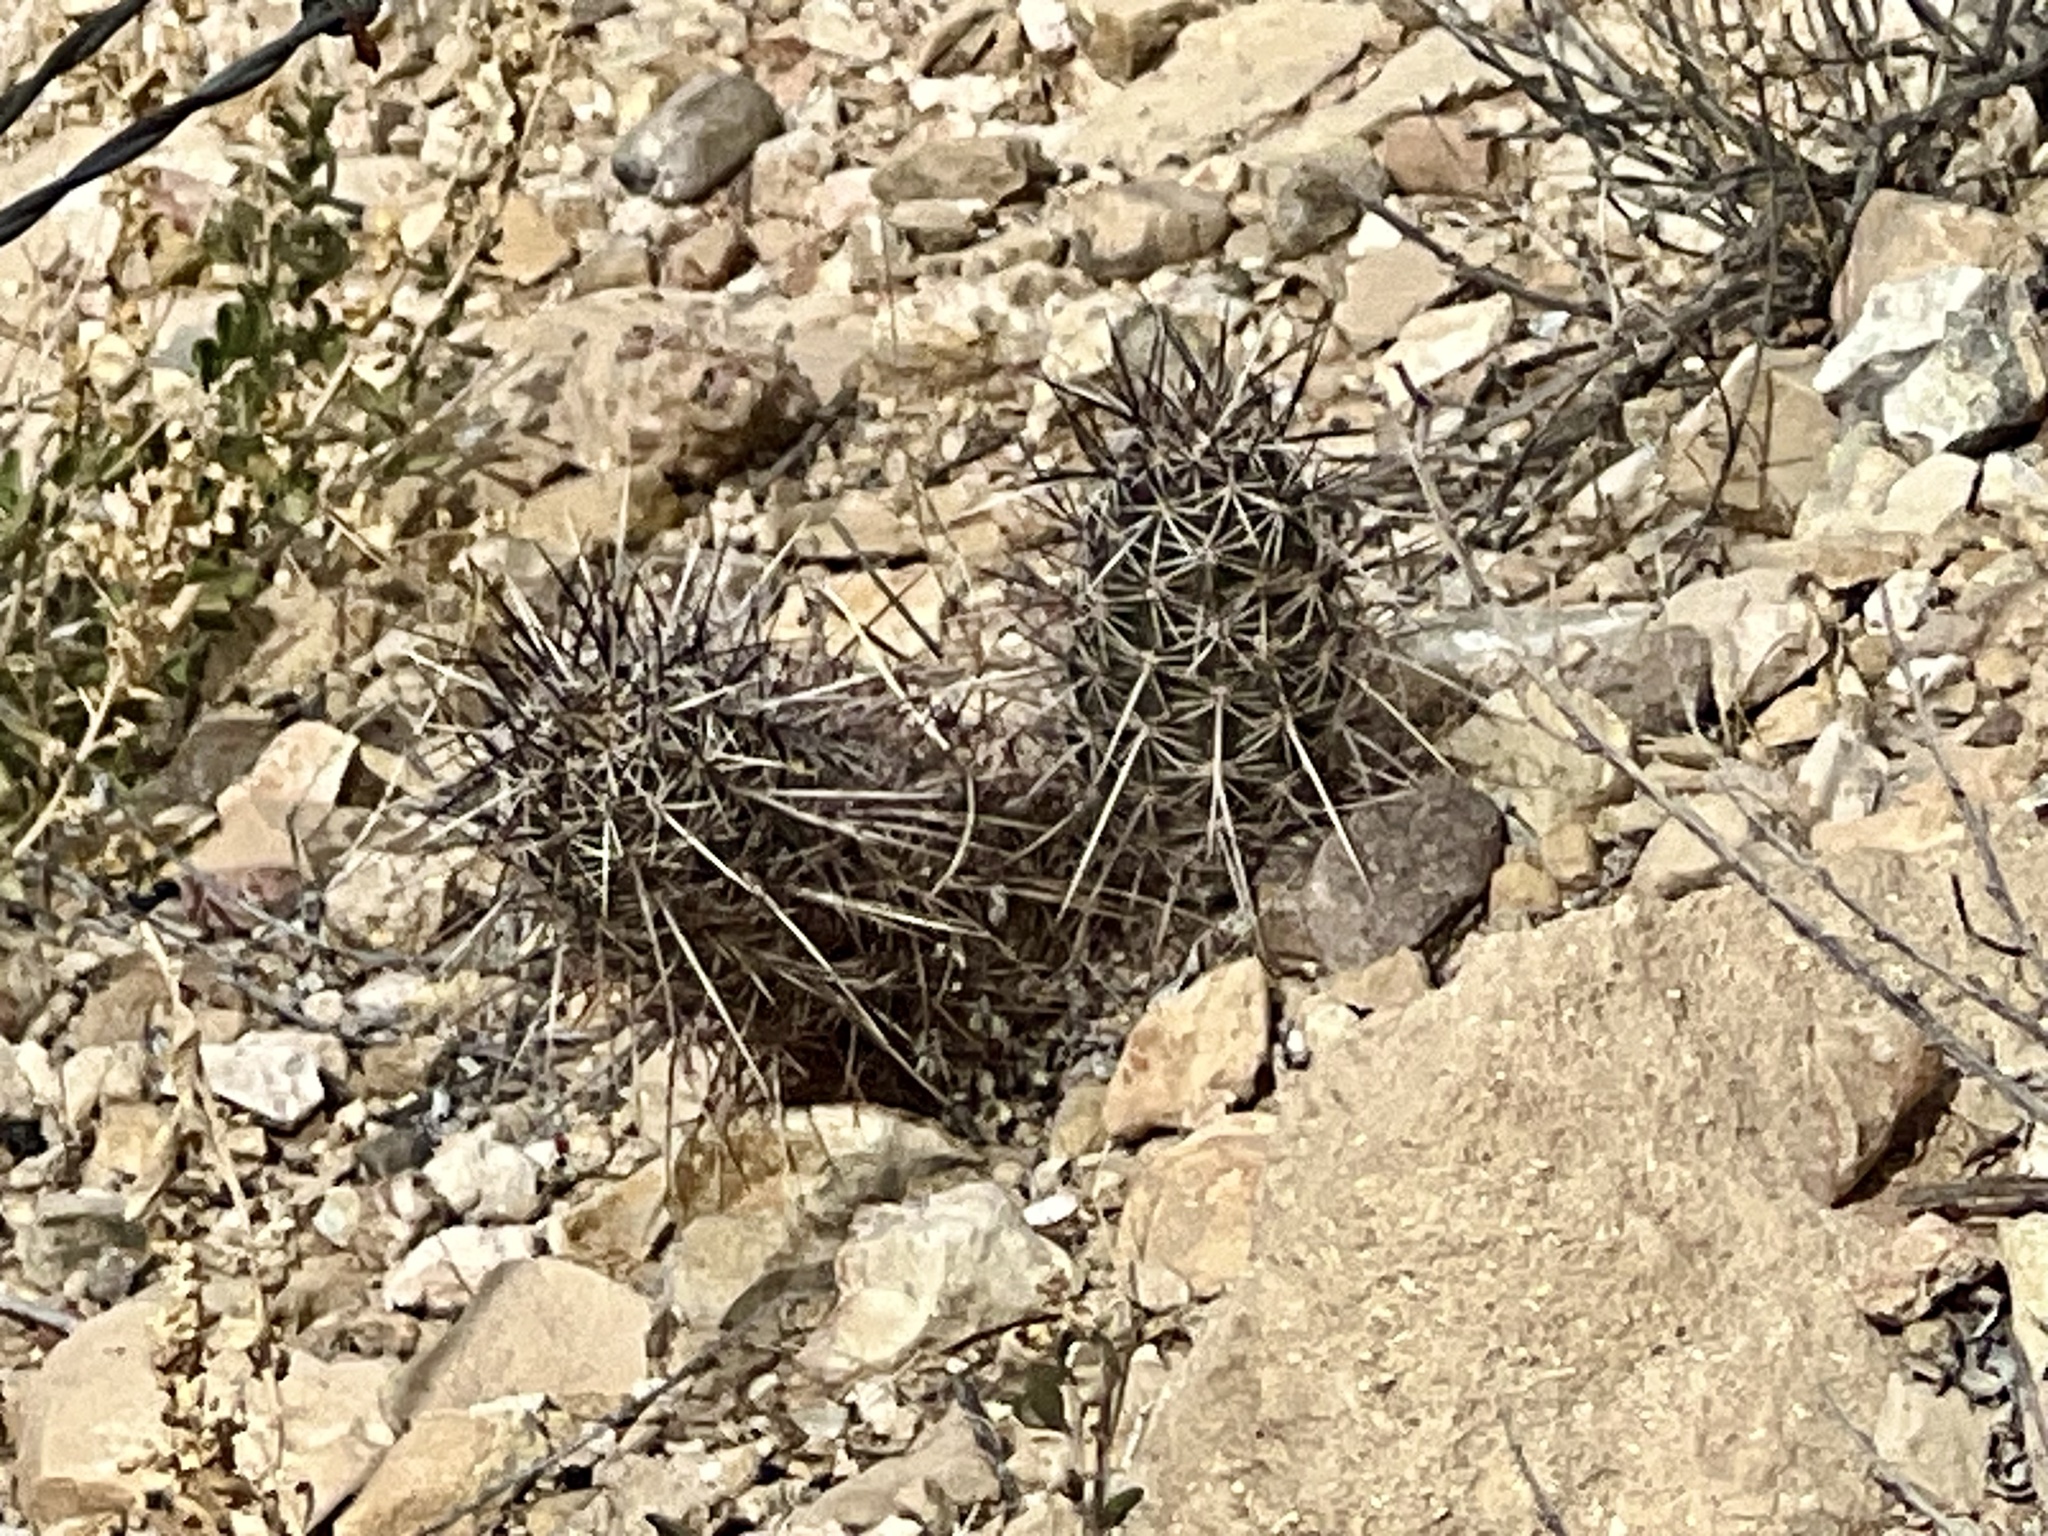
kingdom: Plantae
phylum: Tracheophyta
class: Magnoliopsida
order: Caryophyllales
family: Cactaceae
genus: Echinocereus
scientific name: Echinocereus engelmannii
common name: Engelmann's hedgehog cactus
